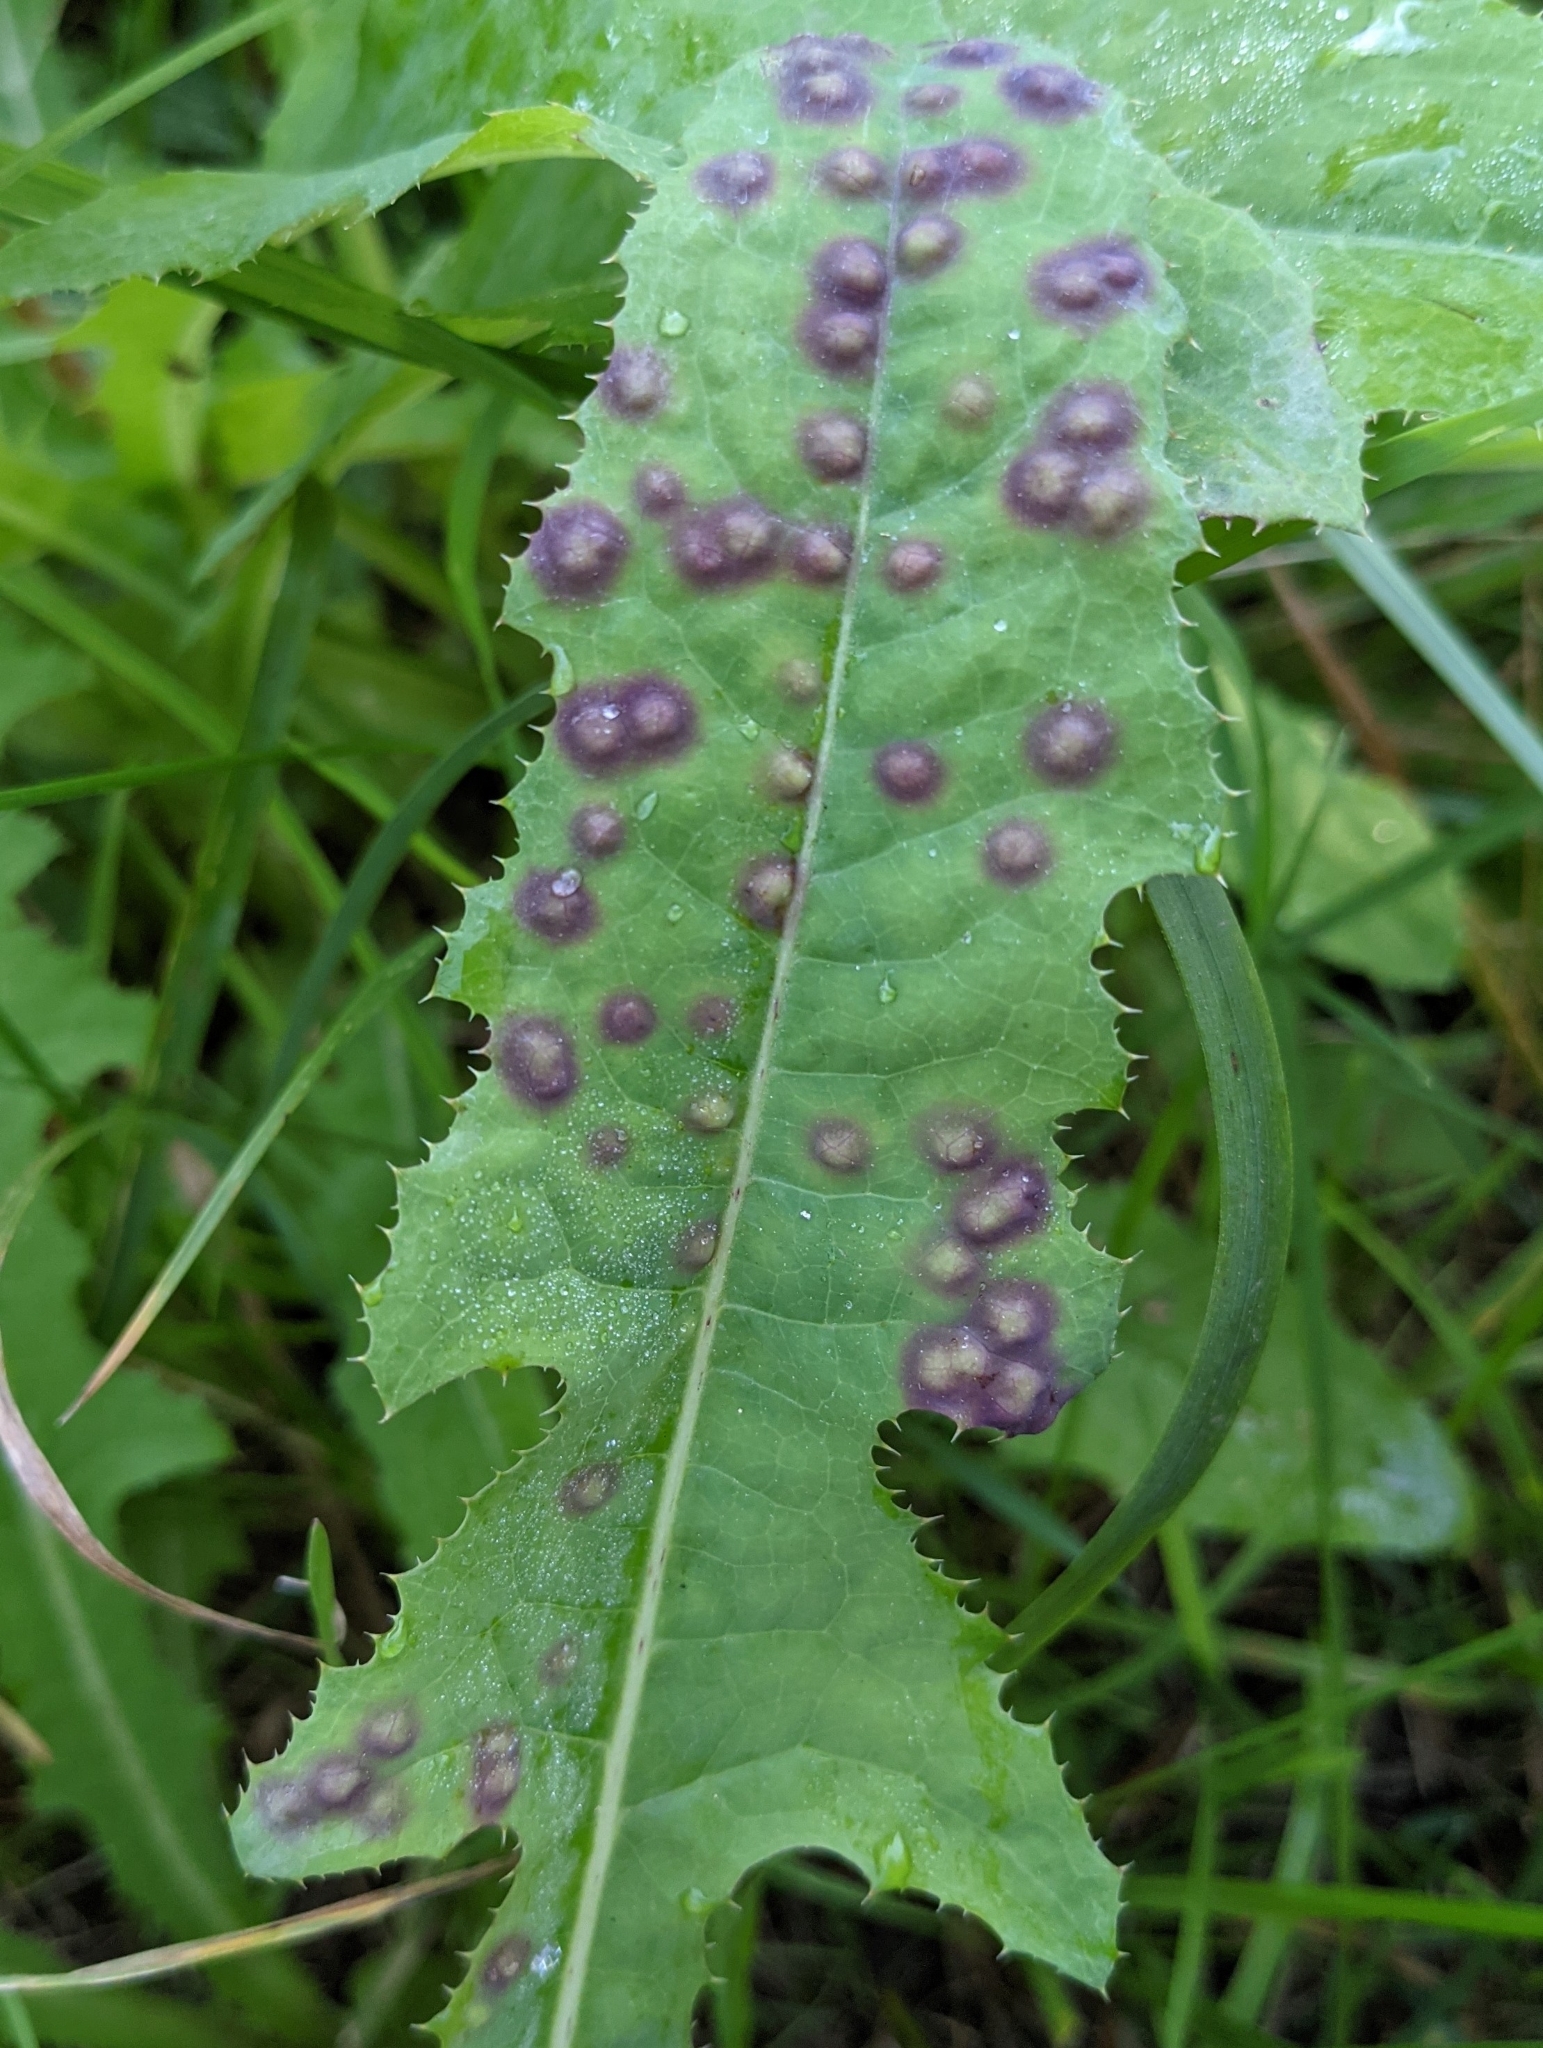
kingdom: Animalia
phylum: Arthropoda
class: Insecta
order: Diptera
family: Cecidomyiidae
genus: Cystiphora
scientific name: Cystiphora sonchi
